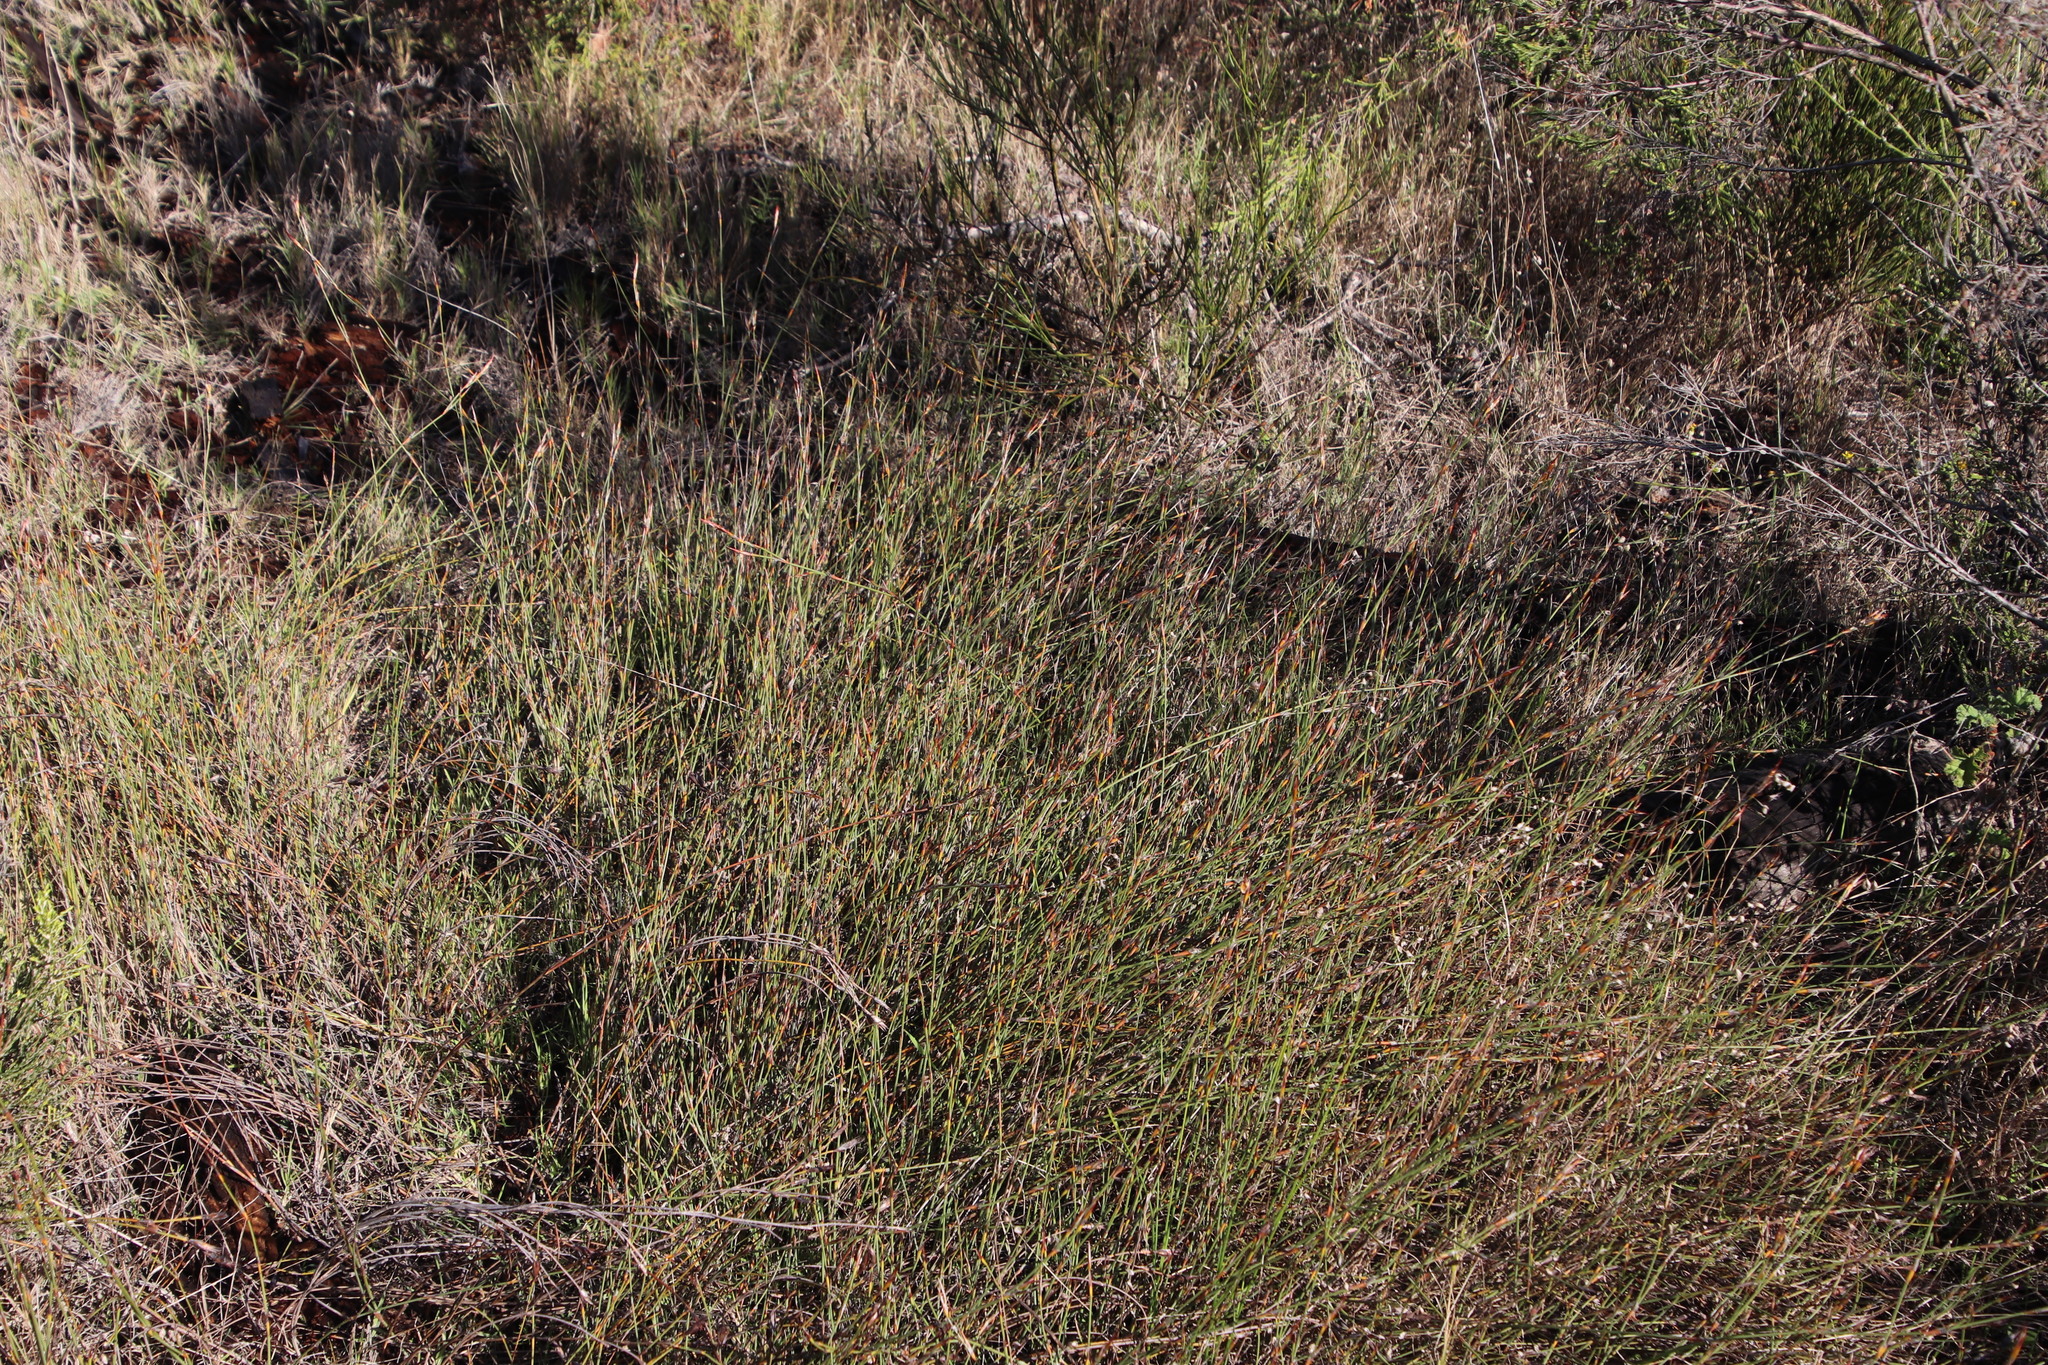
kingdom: Plantae
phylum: Tracheophyta
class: Liliopsida
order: Poales
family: Restionaceae
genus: Willdenowia
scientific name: Willdenowia sulcata
